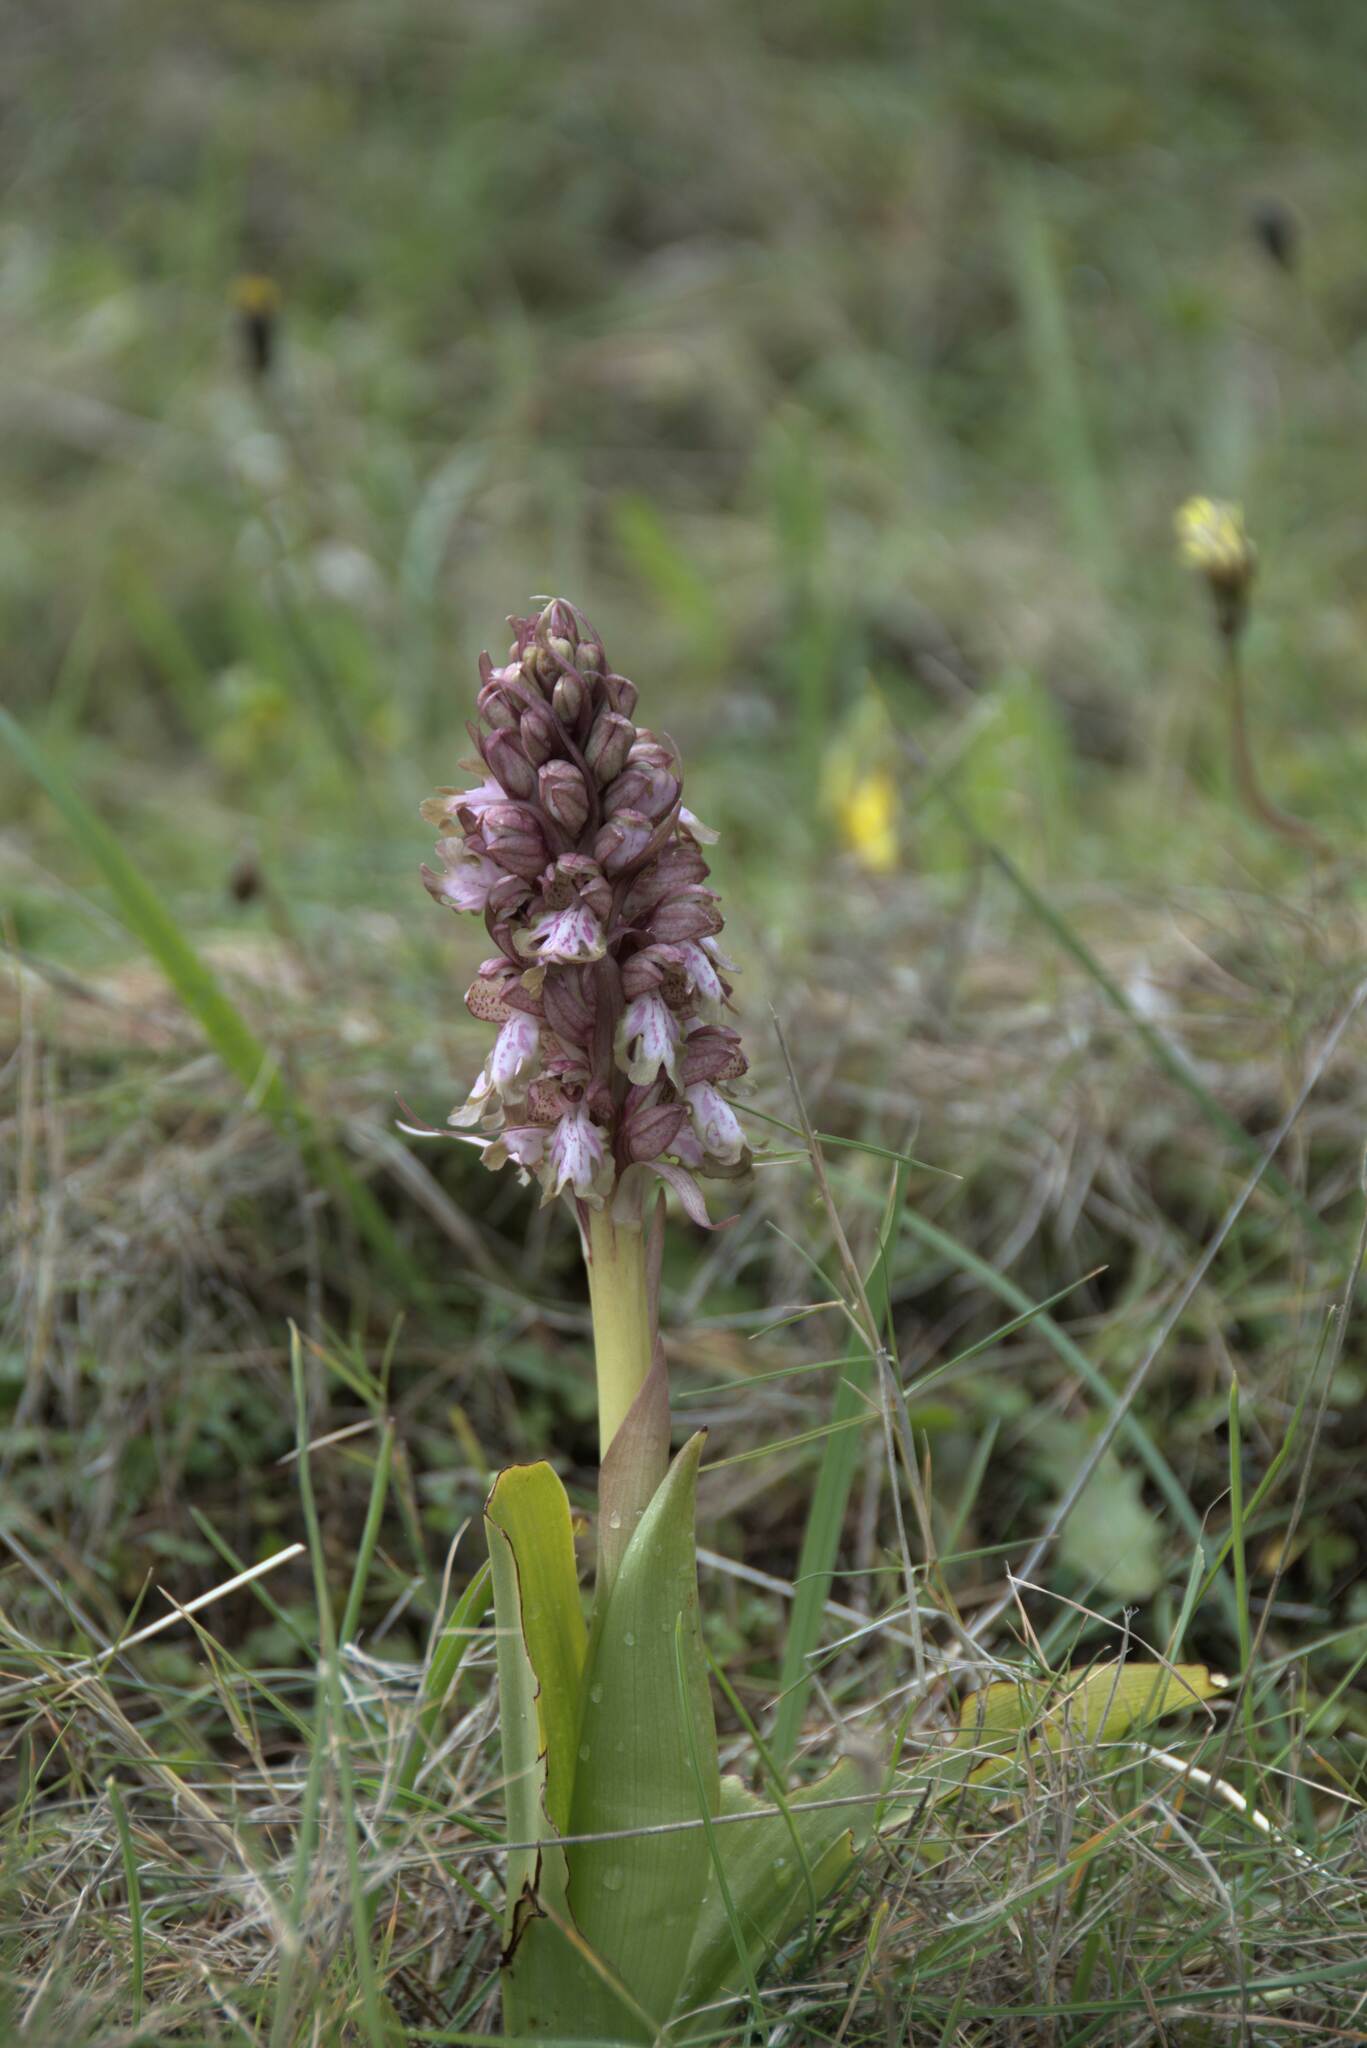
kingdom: Plantae
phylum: Tracheophyta
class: Liliopsida
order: Asparagales
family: Orchidaceae
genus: Himantoglossum
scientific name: Himantoglossum robertianum
